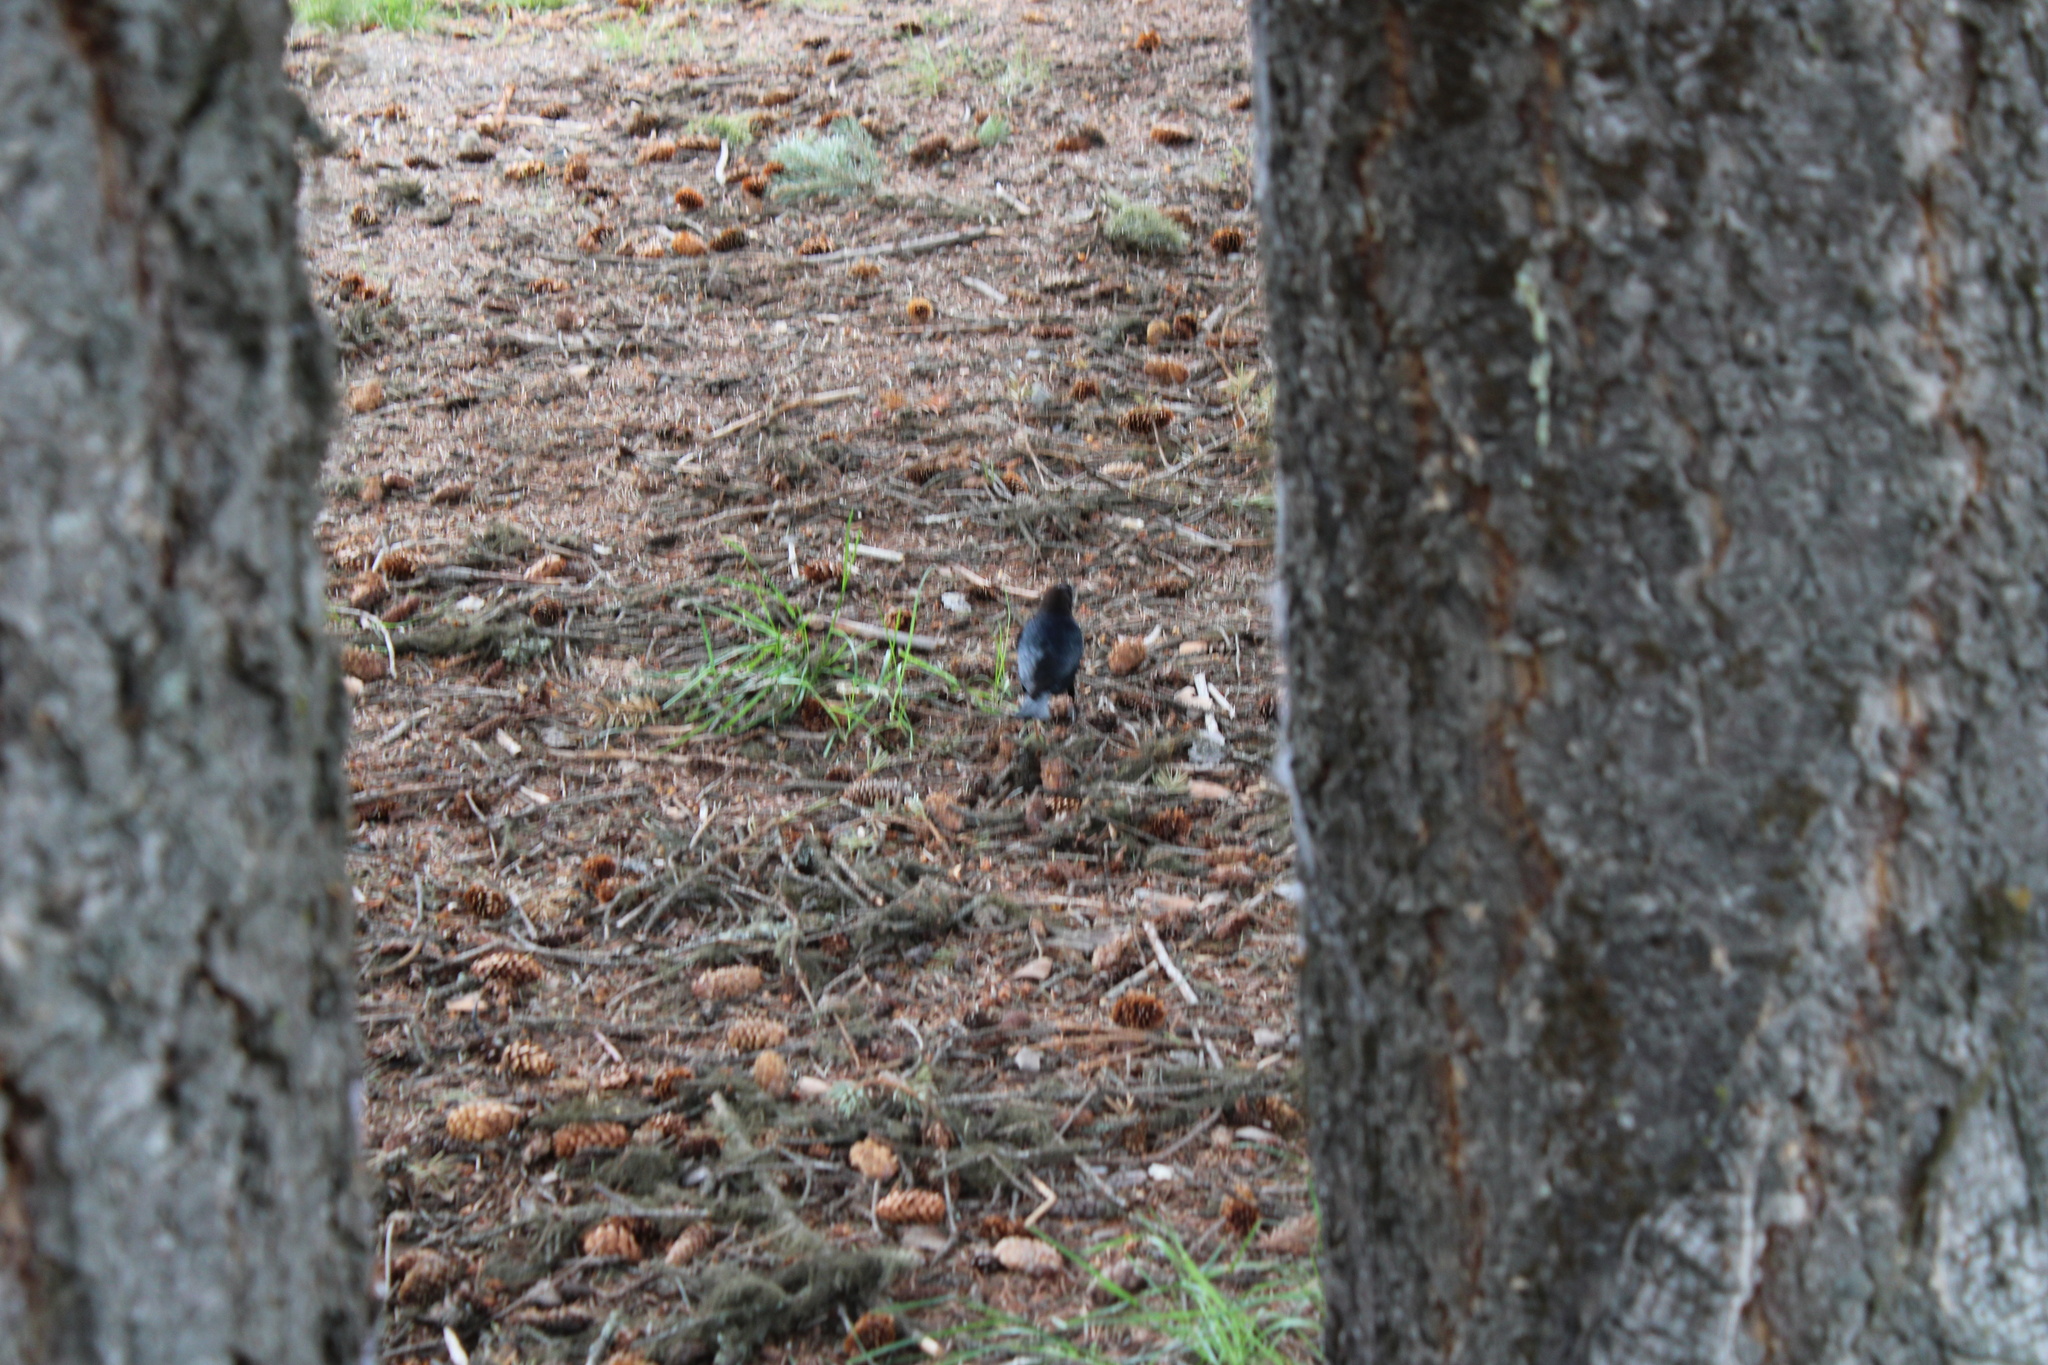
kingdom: Animalia
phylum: Chordata
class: Aves
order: Passeriformes
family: Icteridae
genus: Molothrus
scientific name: Molothrus ater
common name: Brown-headed cowbird
